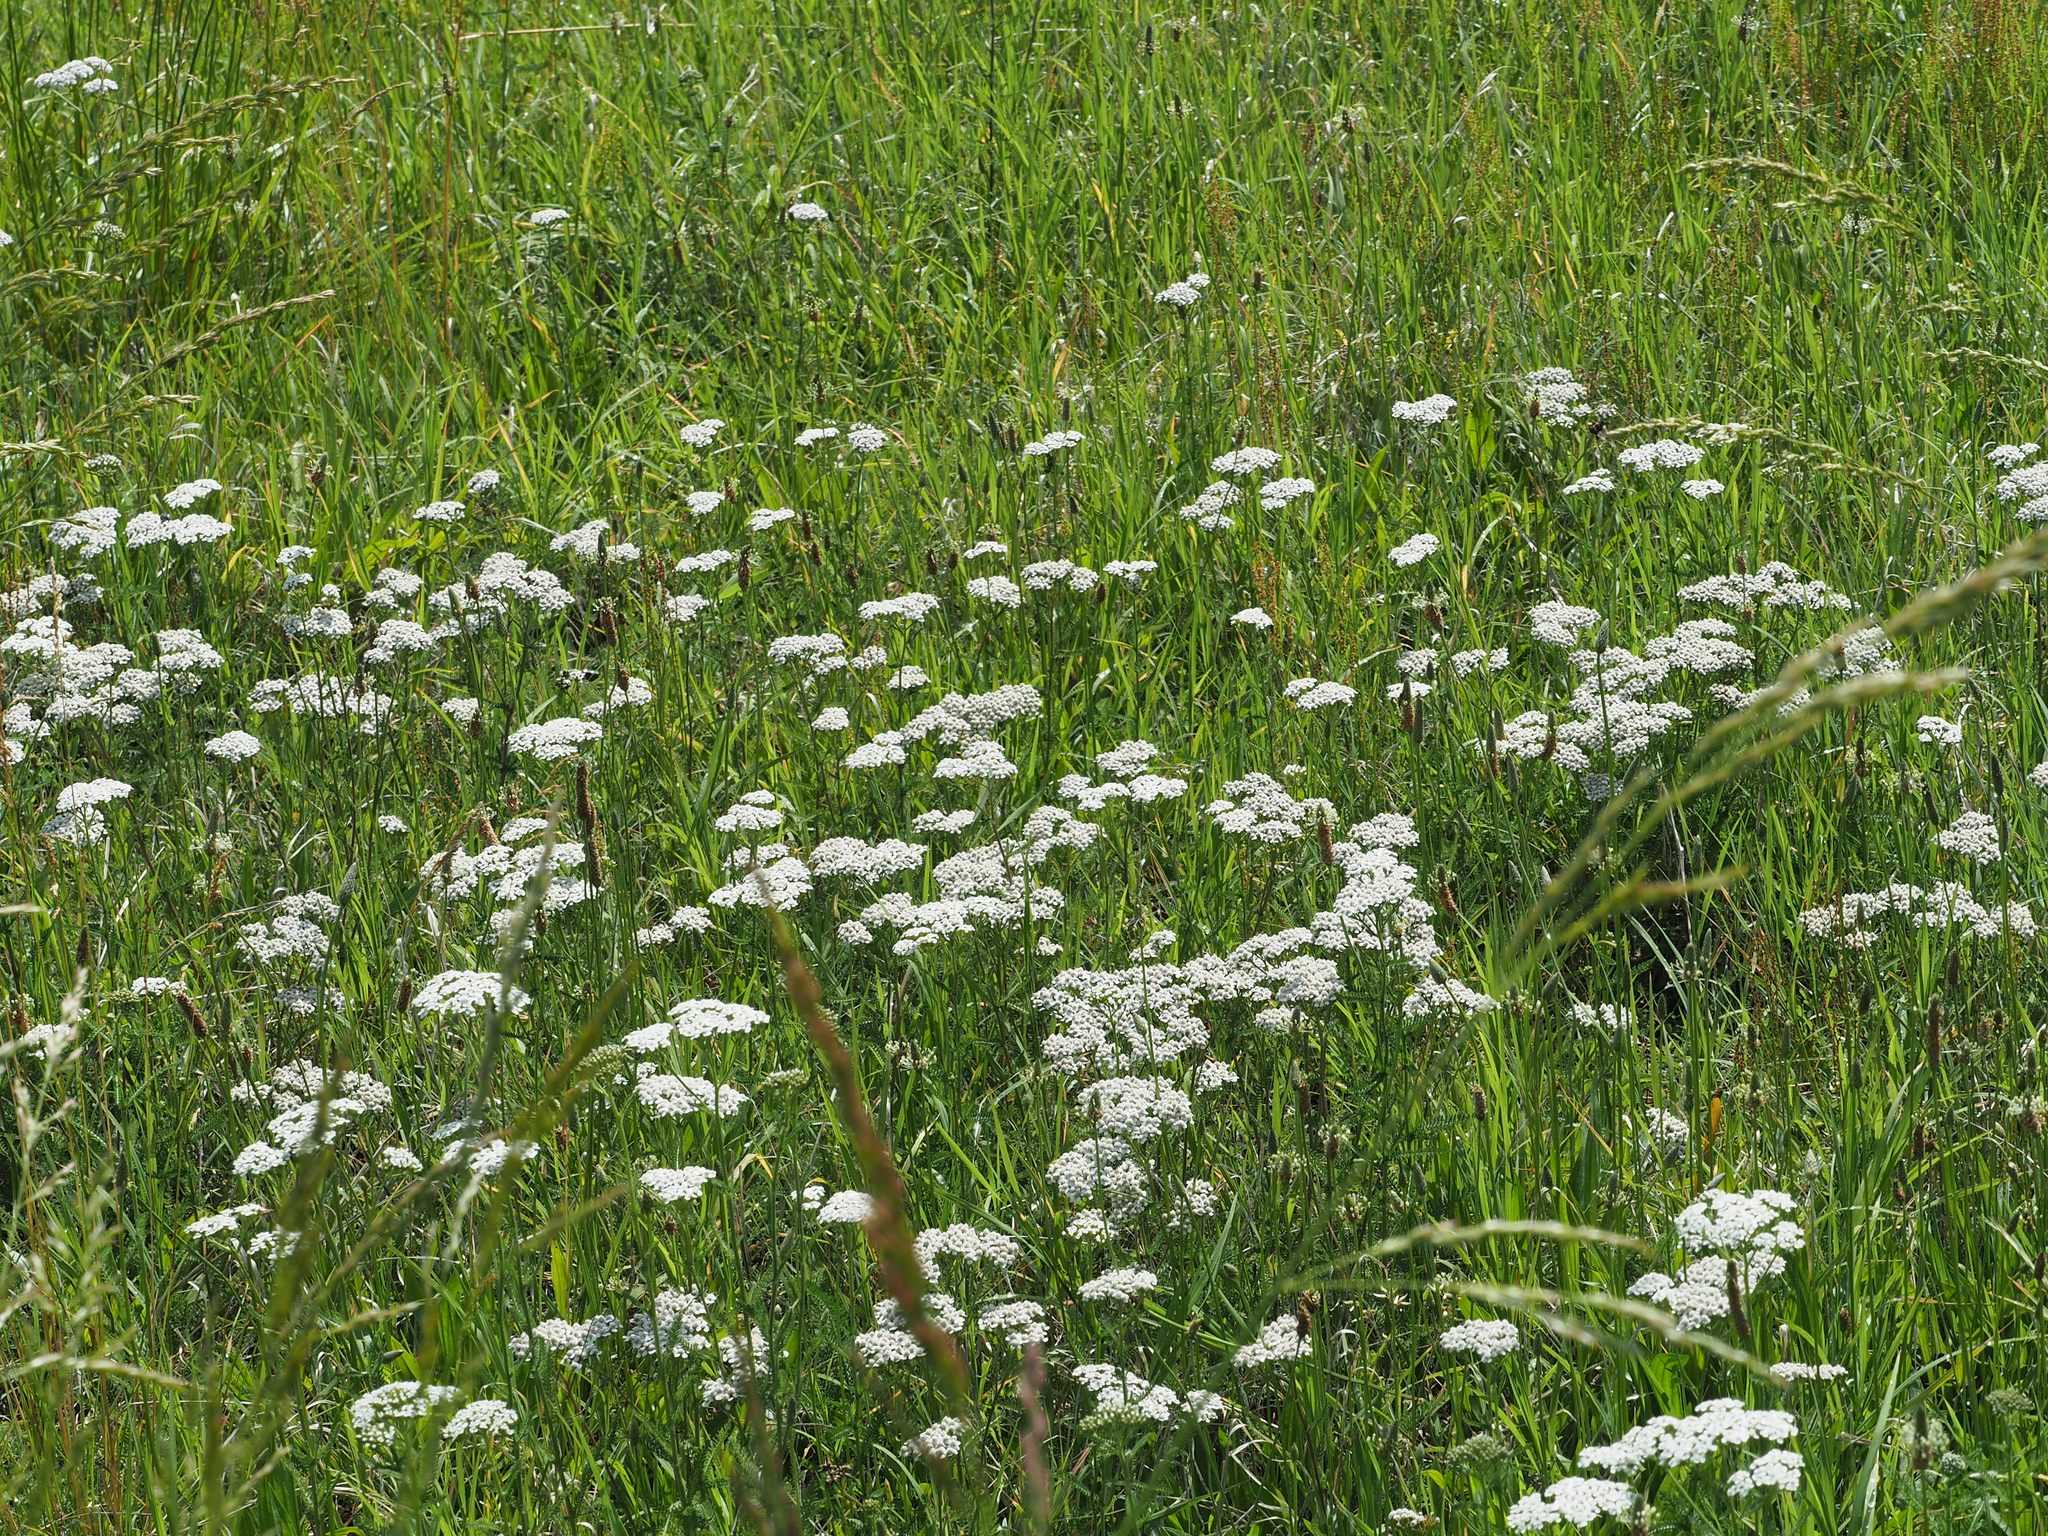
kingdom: Plantae
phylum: Tracheophyta
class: Magnoliopsida
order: Asterales
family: Asteraceae
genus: Achillea
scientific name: Achillea millefolium
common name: Yarrow
